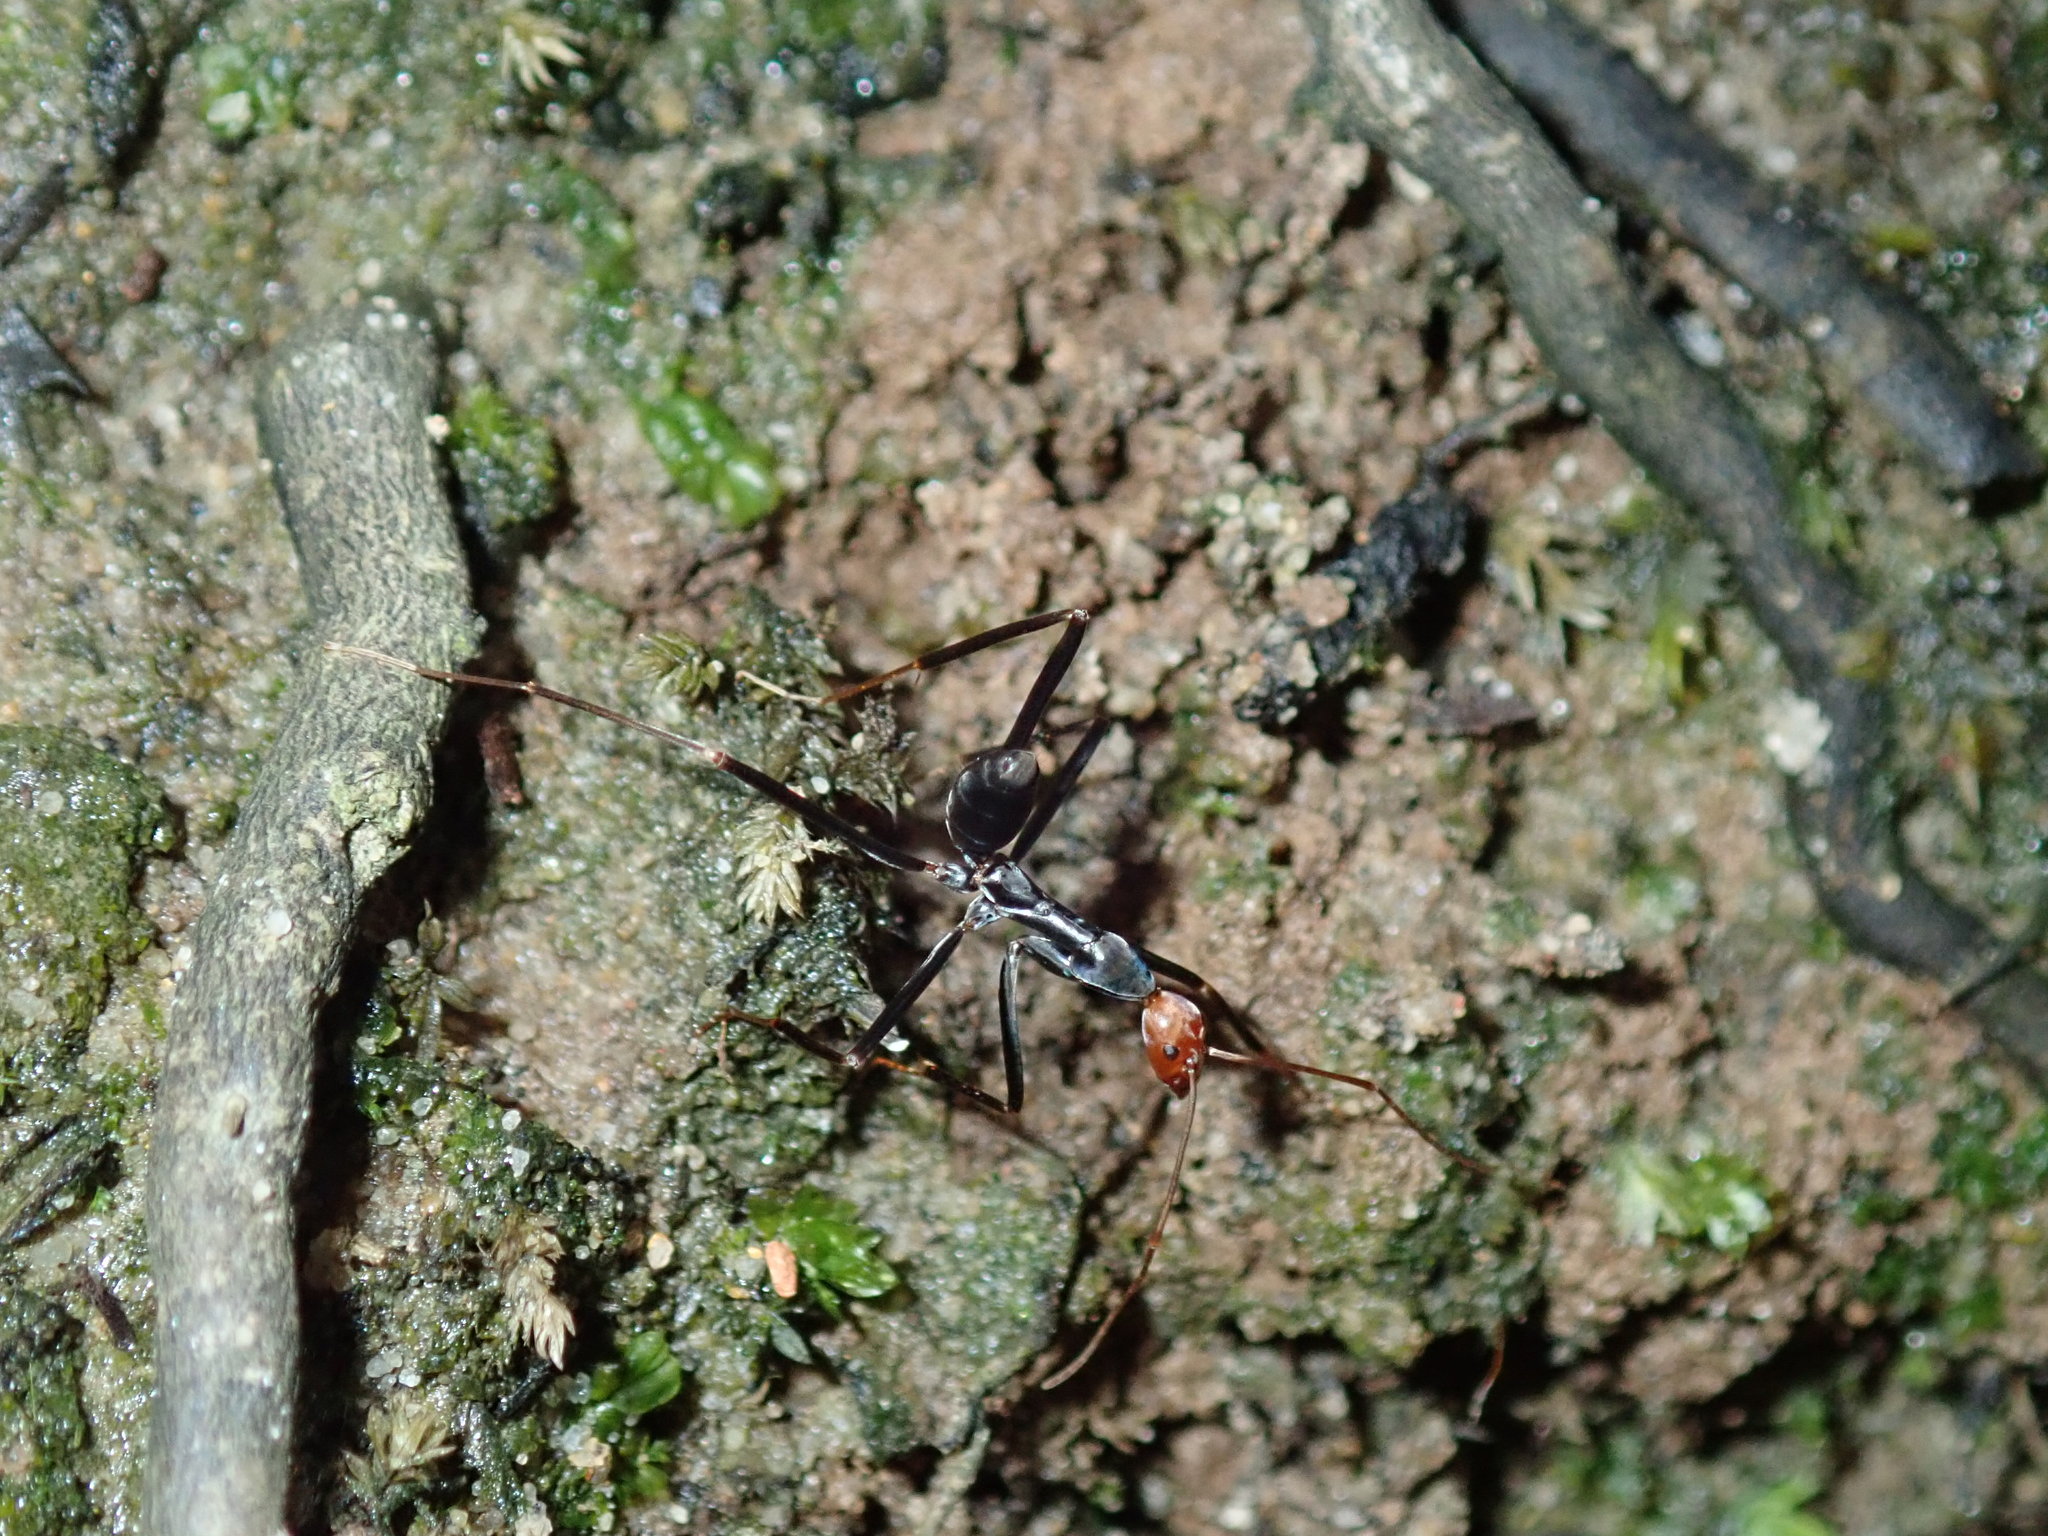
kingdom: Animalia
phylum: Arthropoda
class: Insecta
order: Hymenoptera
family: Formicidae
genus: Leptomyrmex
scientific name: Leptomyrmex erythrocephalus
